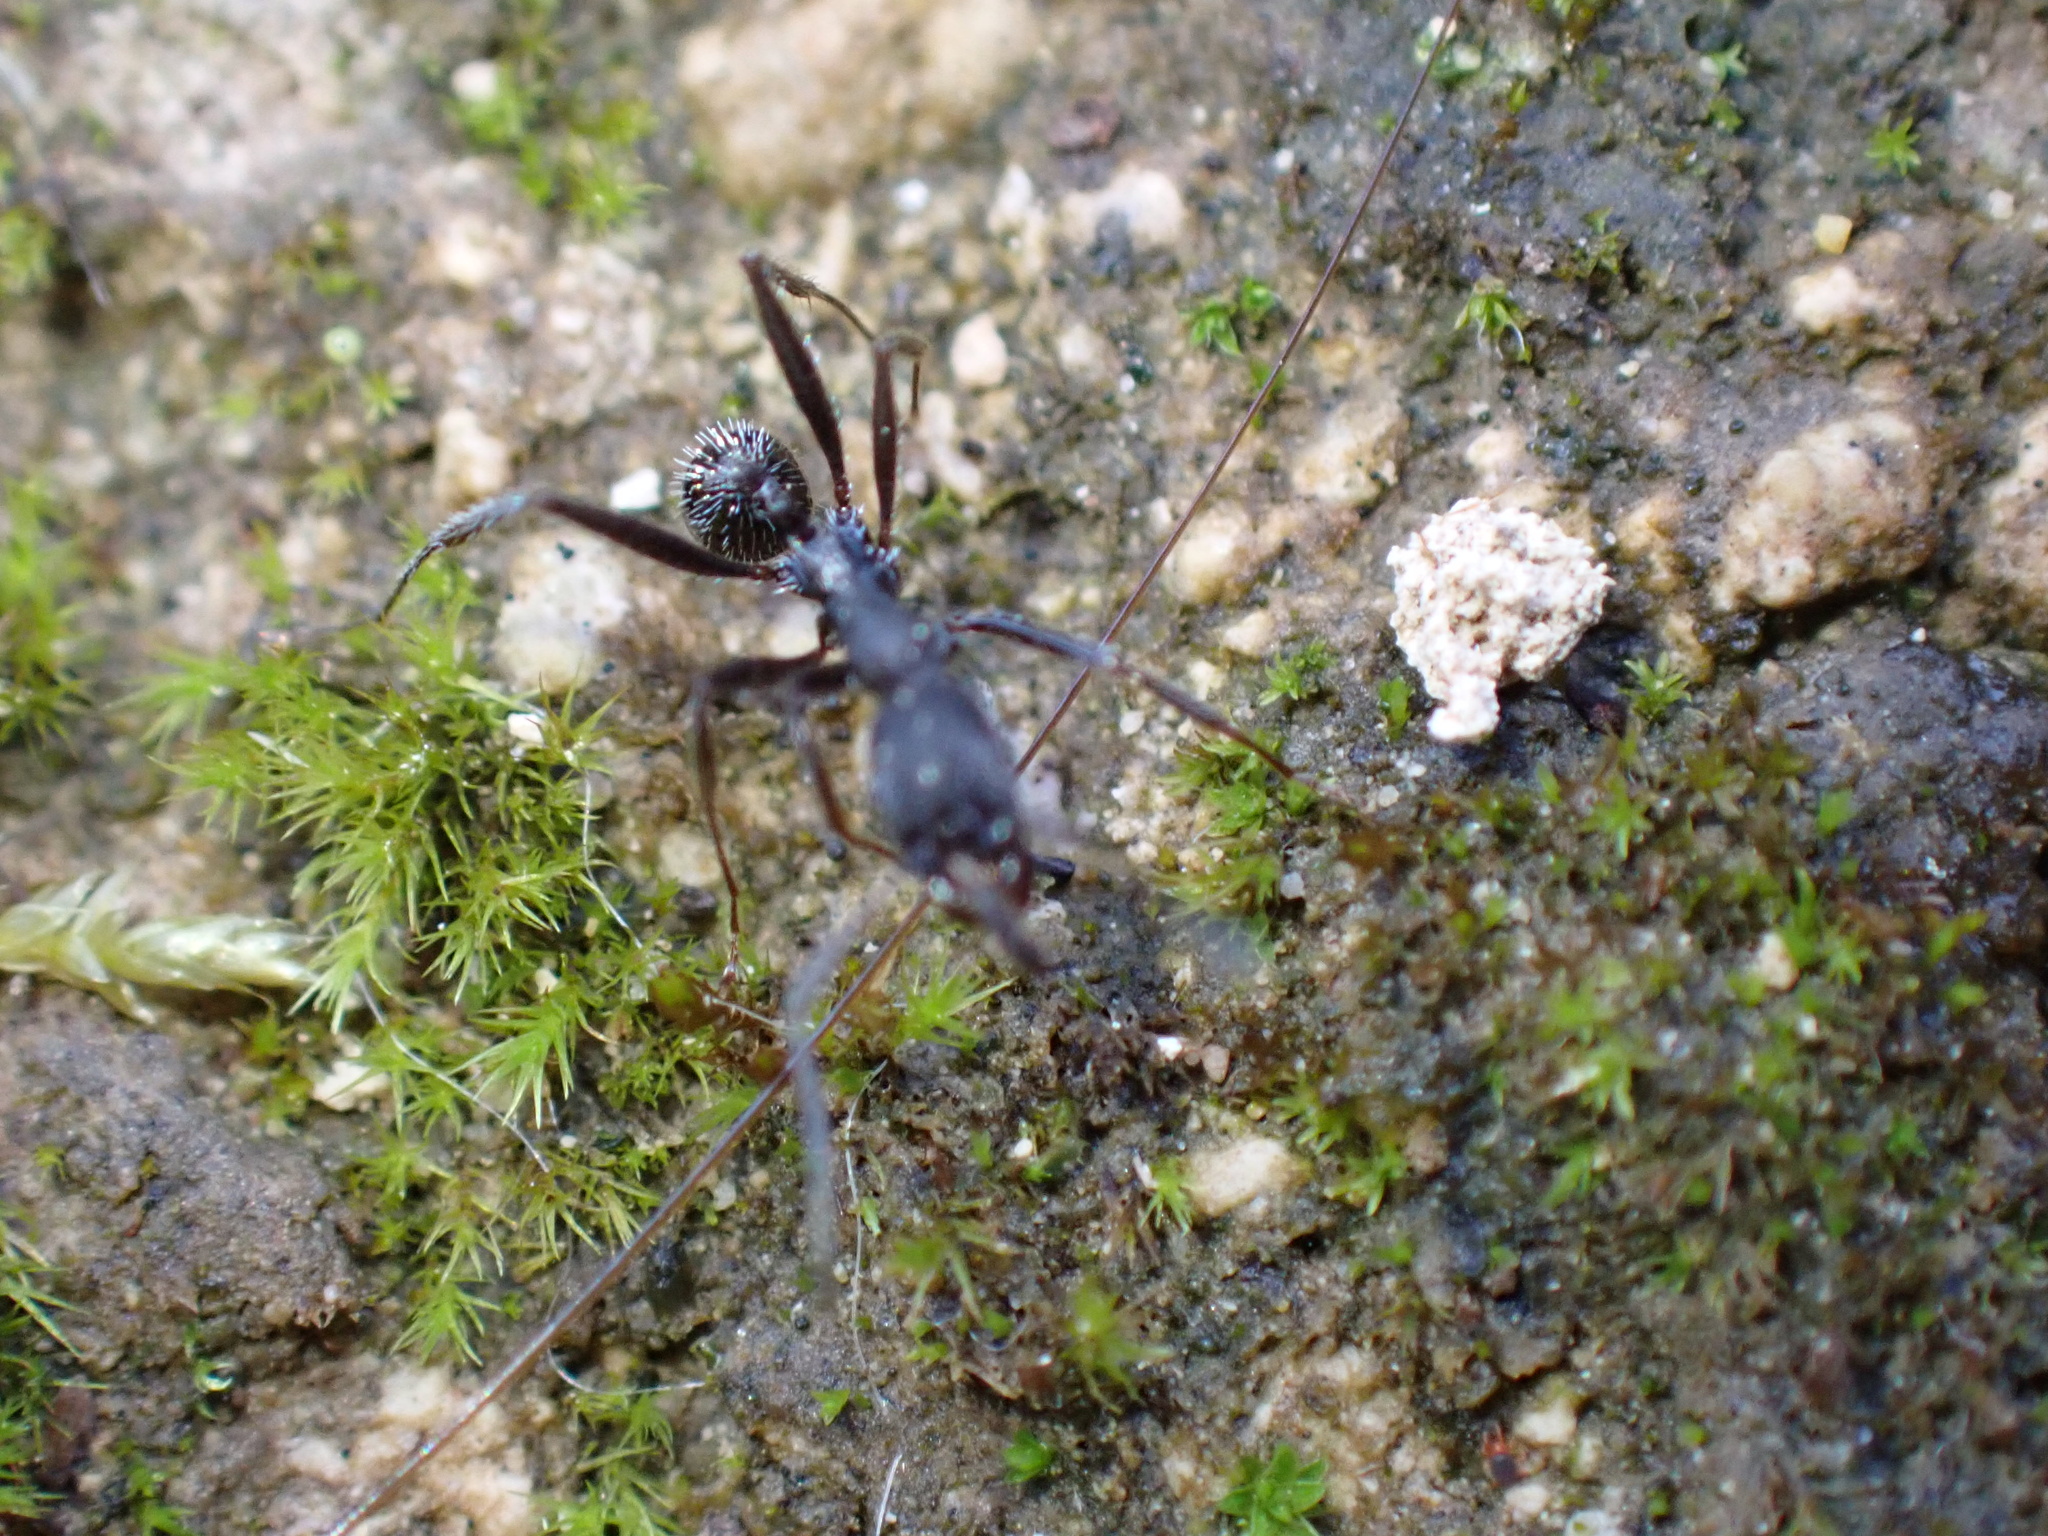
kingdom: Animalia
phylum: Arthropoda
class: Insecta
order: Hymenoptera
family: Formicidae
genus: Aphaenogaster
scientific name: Aphaenogaster senilis
